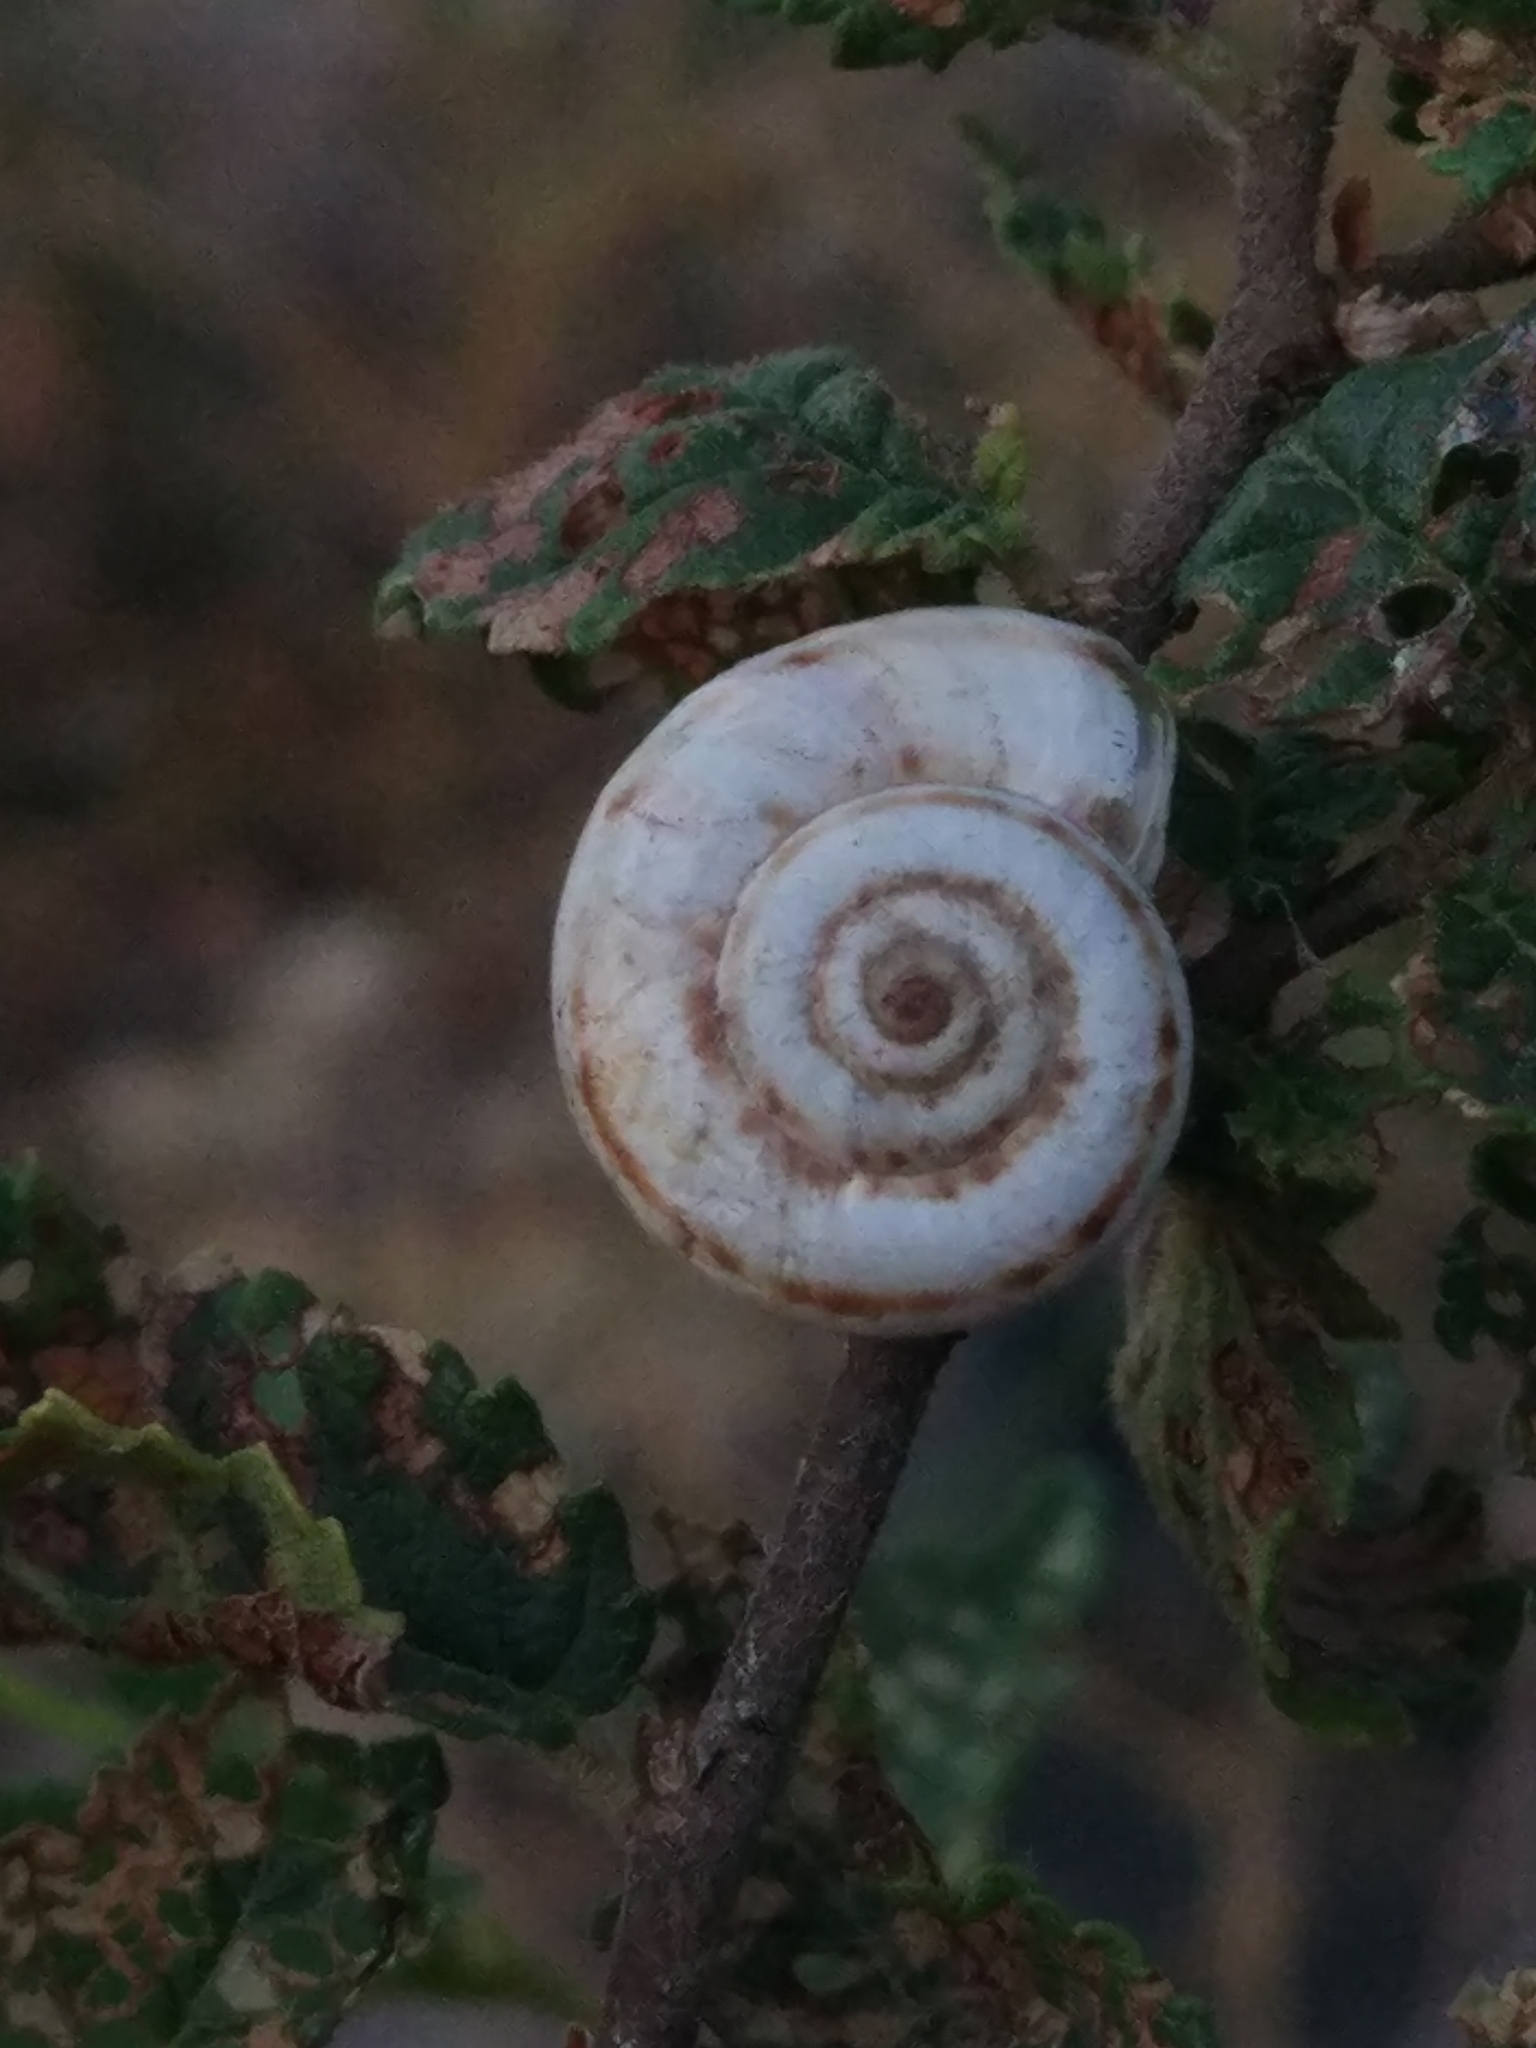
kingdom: Animalia
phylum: Mollusca
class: Gastropoda
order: Stylommatophora
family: Geomitridae
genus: Xeropicta
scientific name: Xeropicta derbentina
